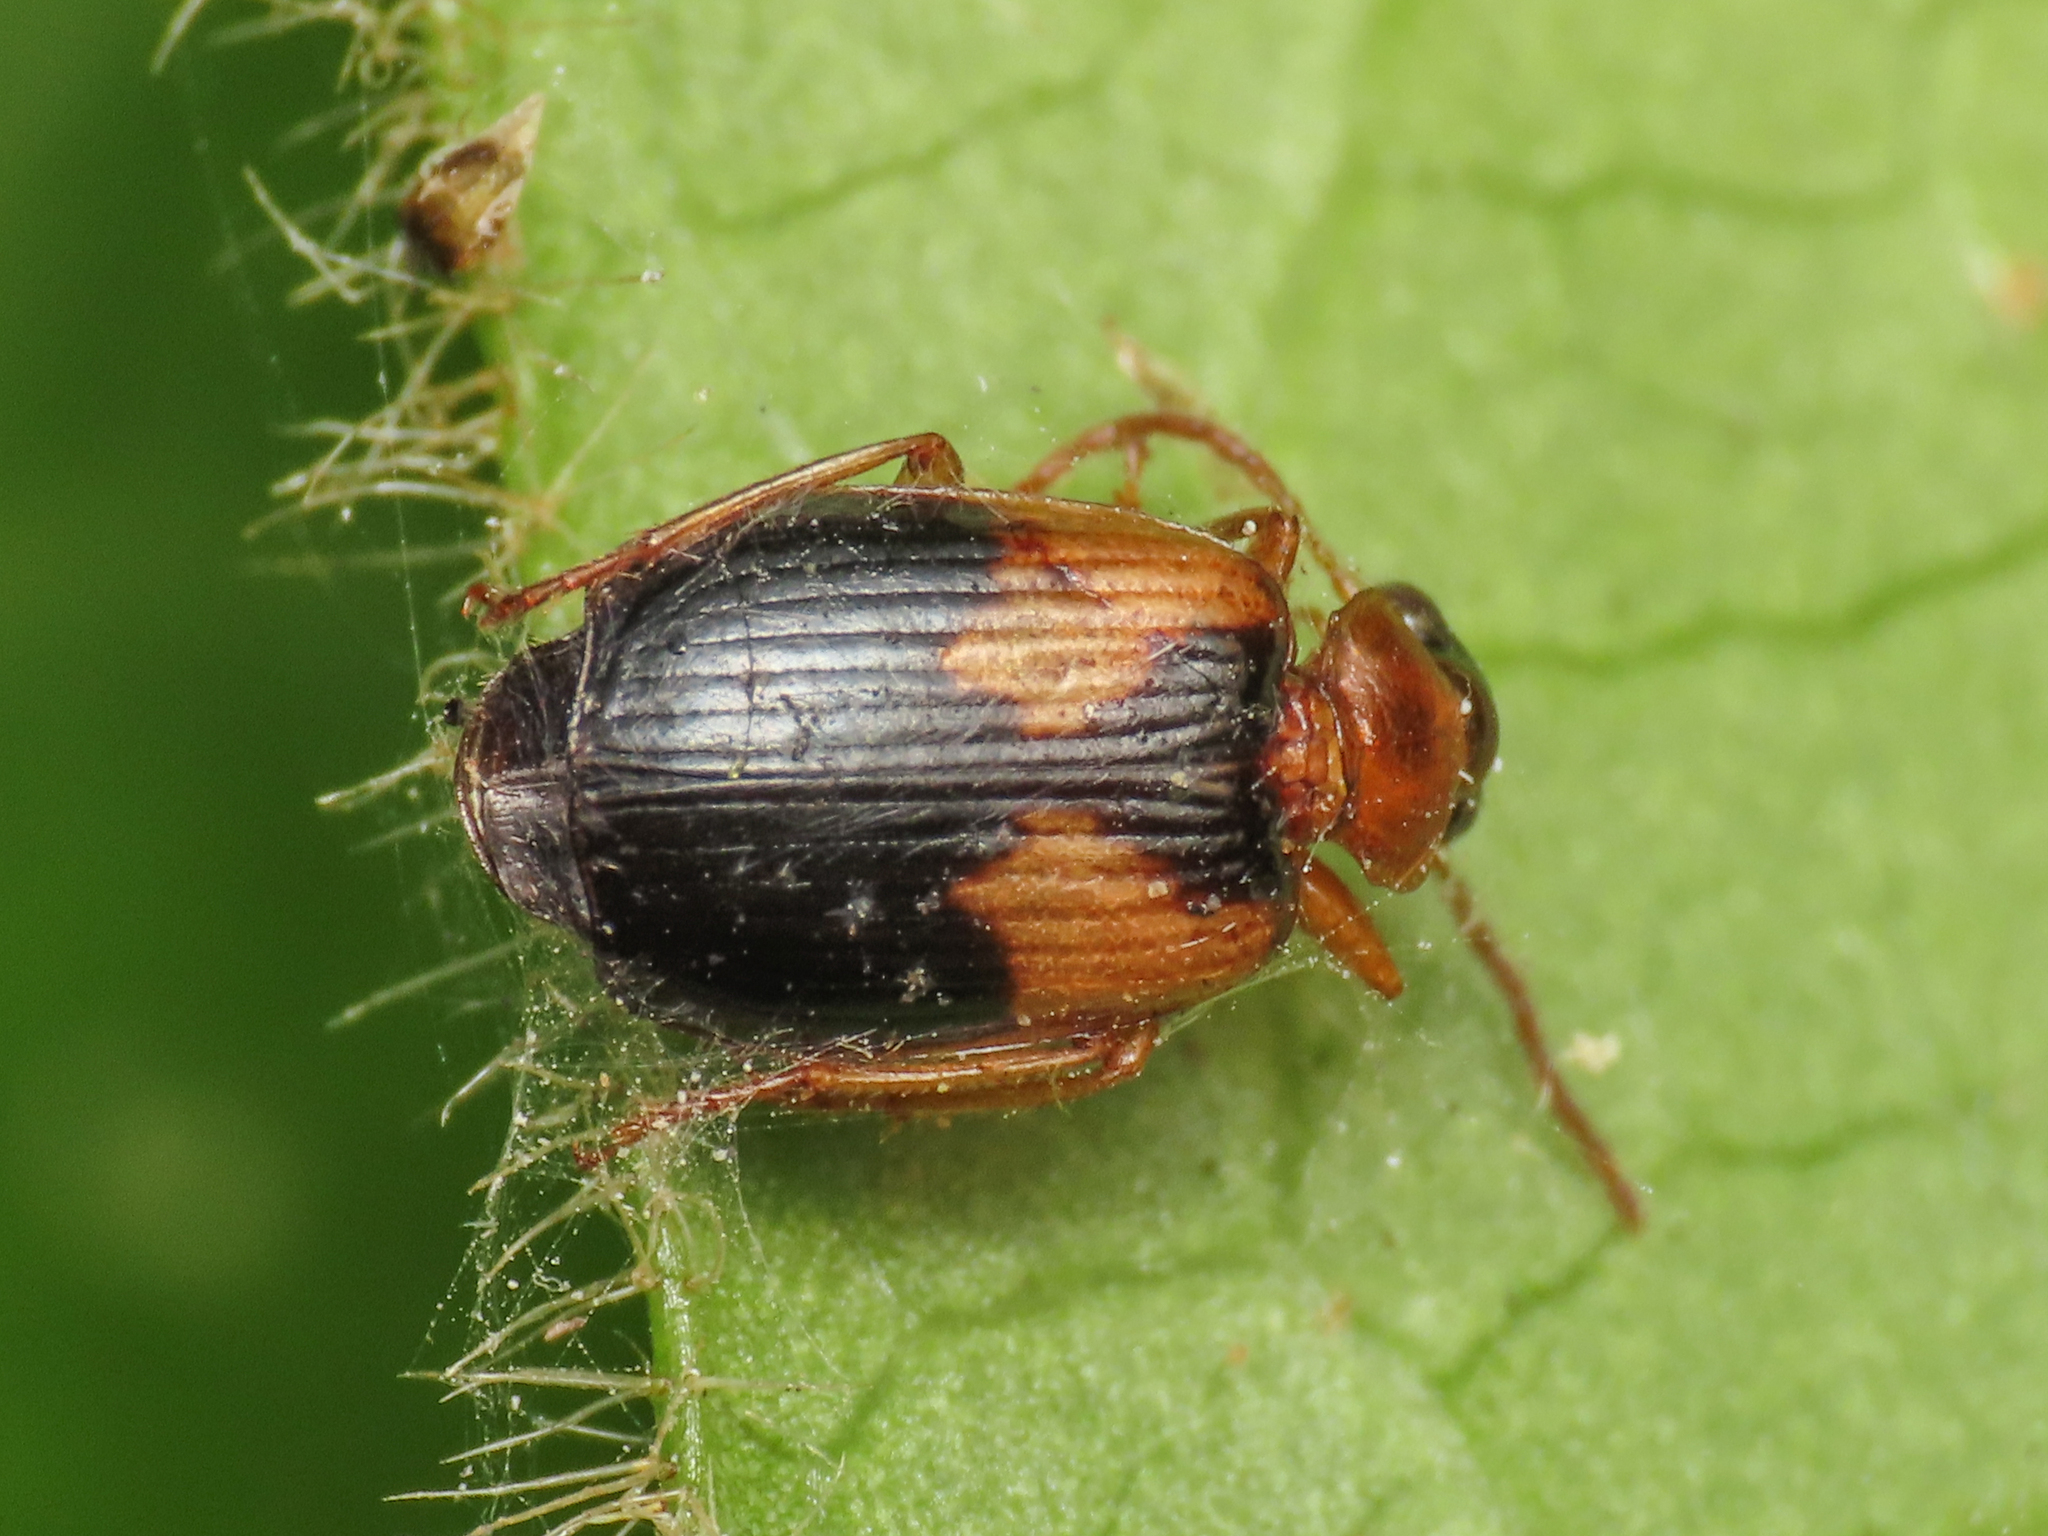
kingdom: Animalia
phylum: Arthropoda
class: Insecta
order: Coleoptera
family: Carabidae
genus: Lebia
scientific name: Lebia scapularis
